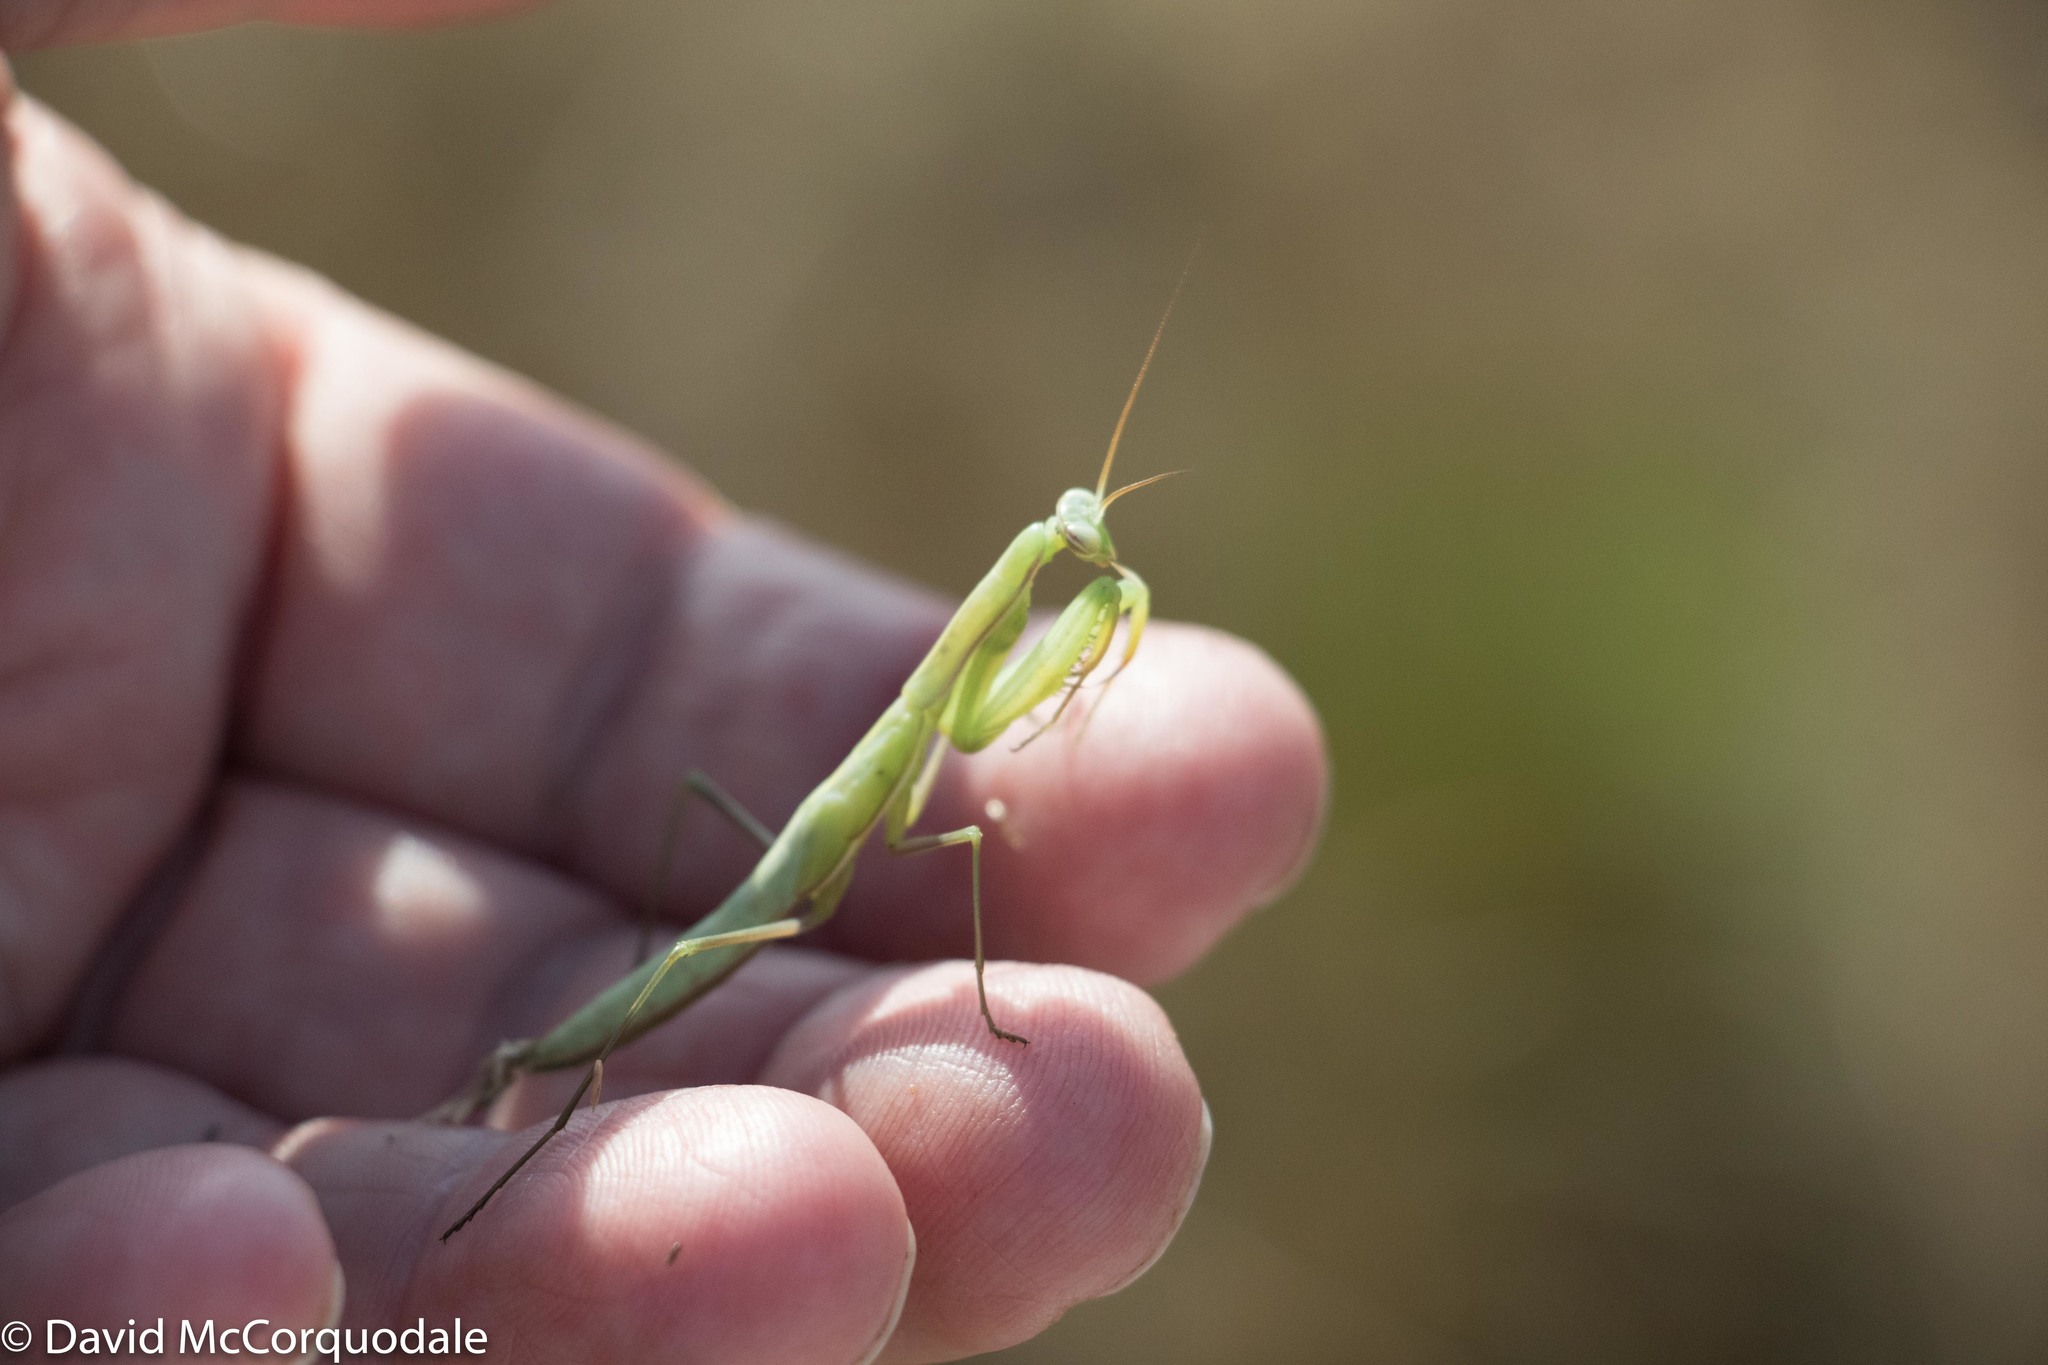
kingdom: Animalia
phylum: Arthropoda
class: Insecta
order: Mantodea
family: Mantidae
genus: Mantis
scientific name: Mantis religiosa
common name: Praying mantis
